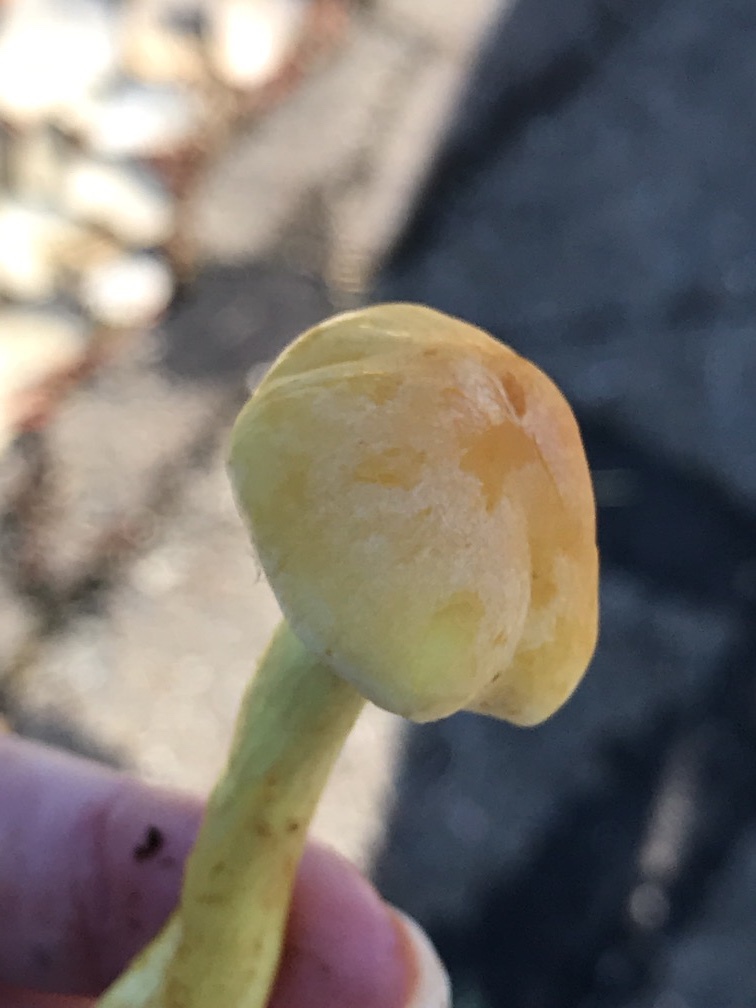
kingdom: Fungi
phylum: Basidiomycota
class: Agaricomycetes
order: Agaricales
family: Strophariaceae
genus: Hypholoma
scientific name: Hypholoma fasciculare
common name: Sulphur tuft
